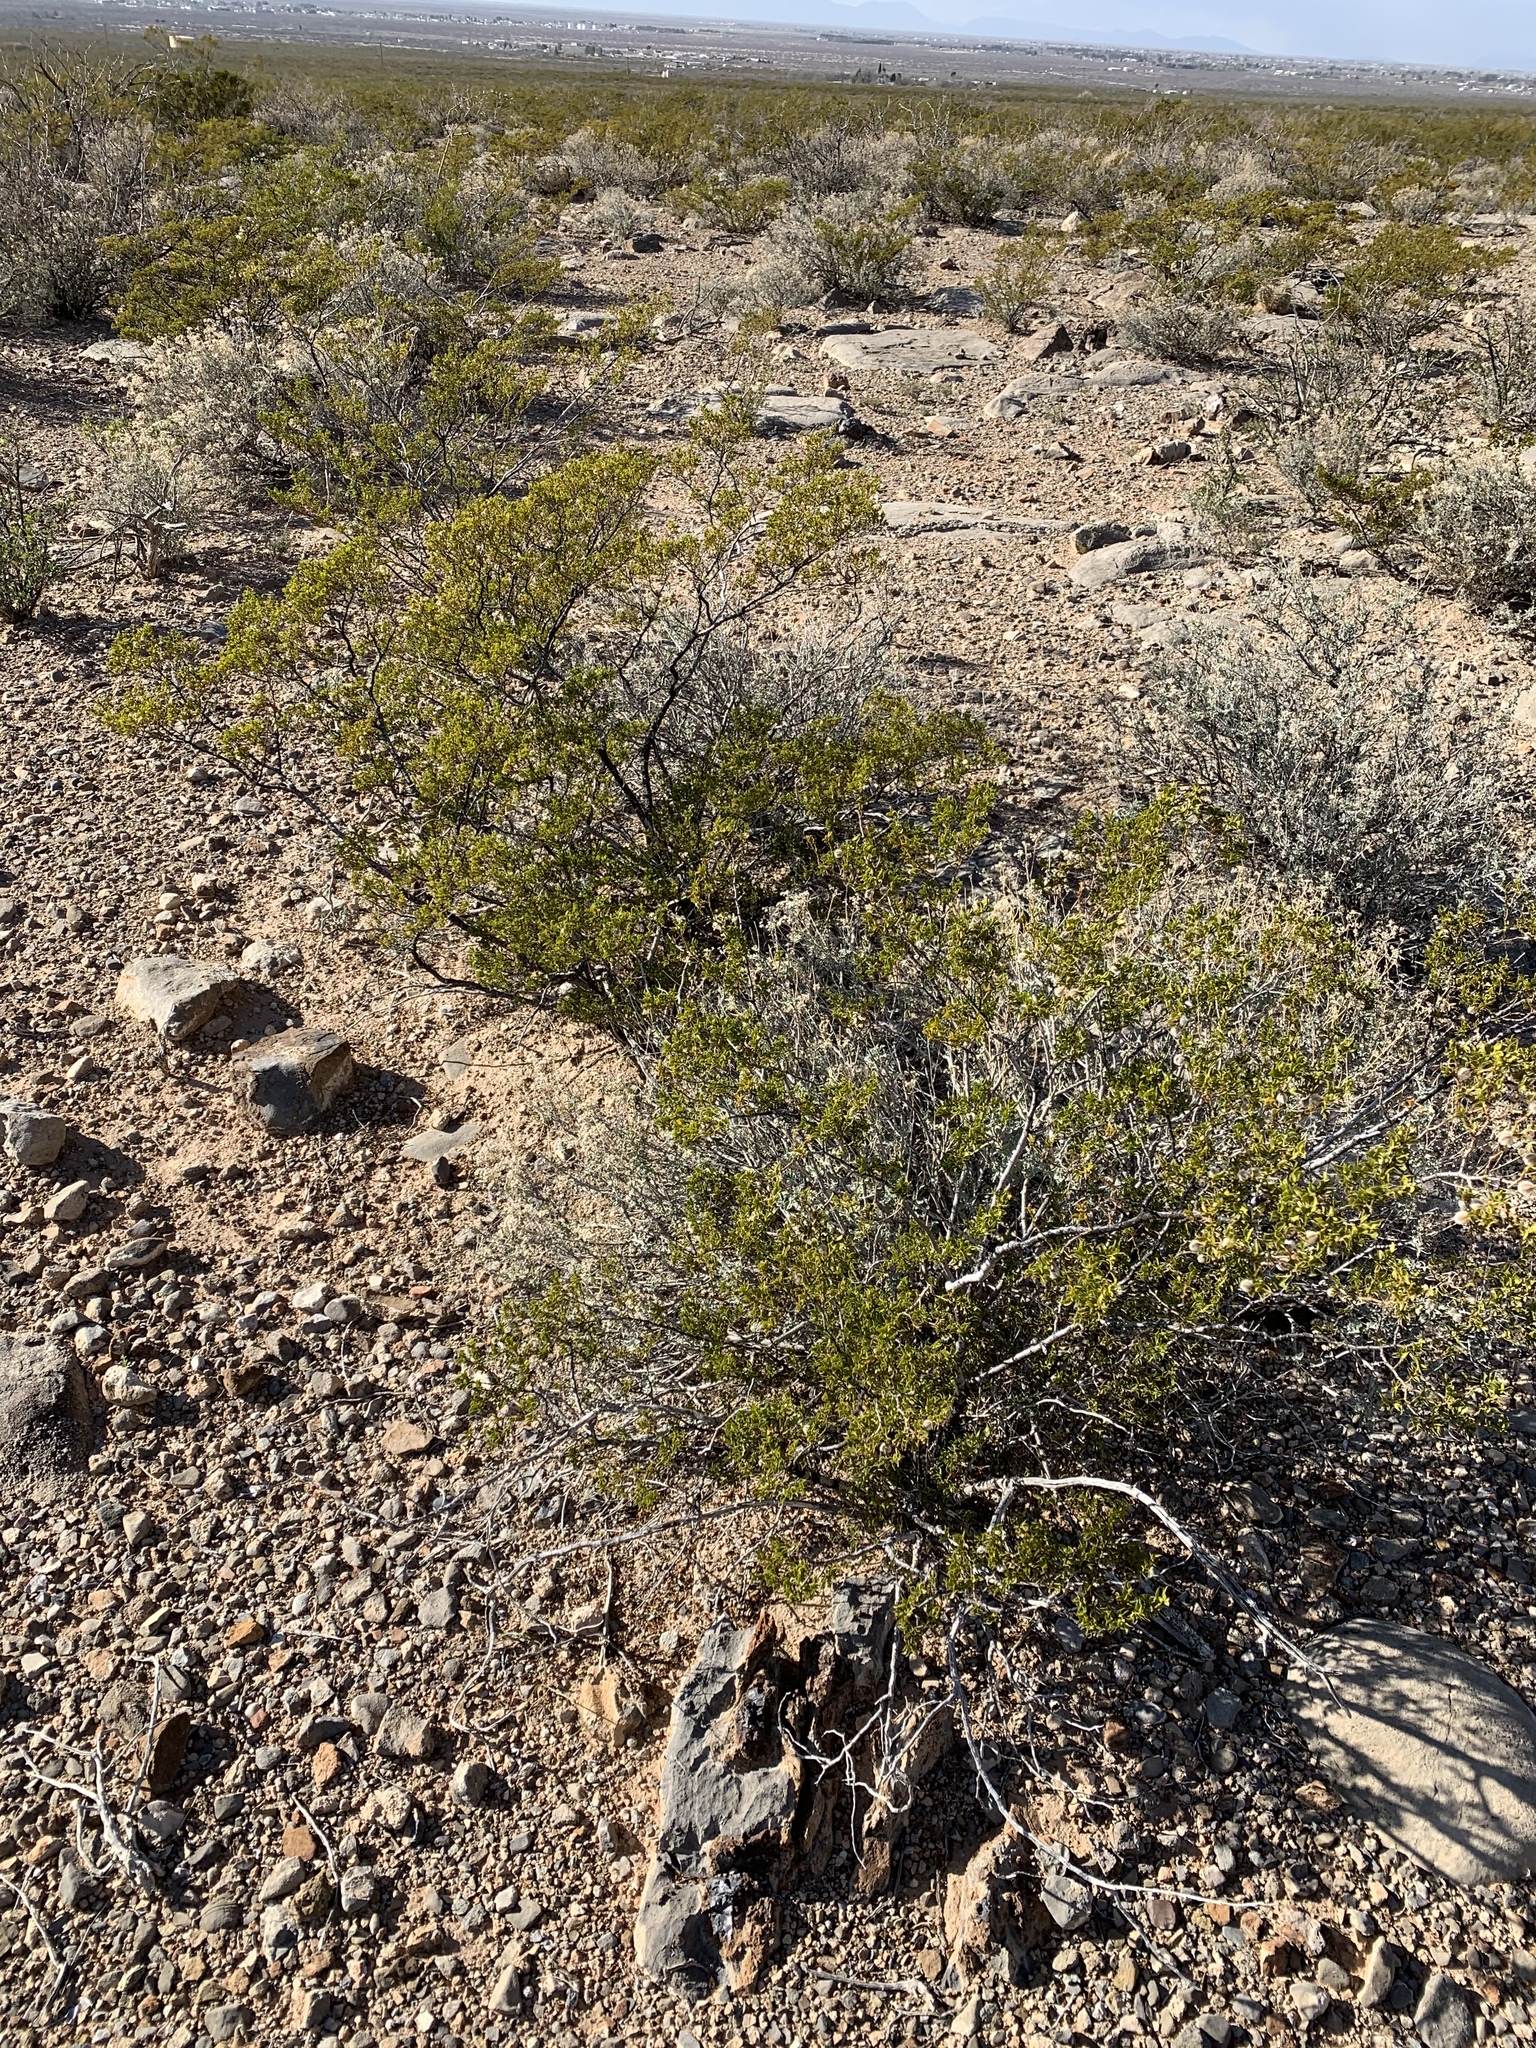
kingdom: Plantae
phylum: Tracheophyta
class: Magnoliopsida
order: Zygophyllales
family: Zygophyllaceae
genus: Larrea
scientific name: Larrea tridentata
